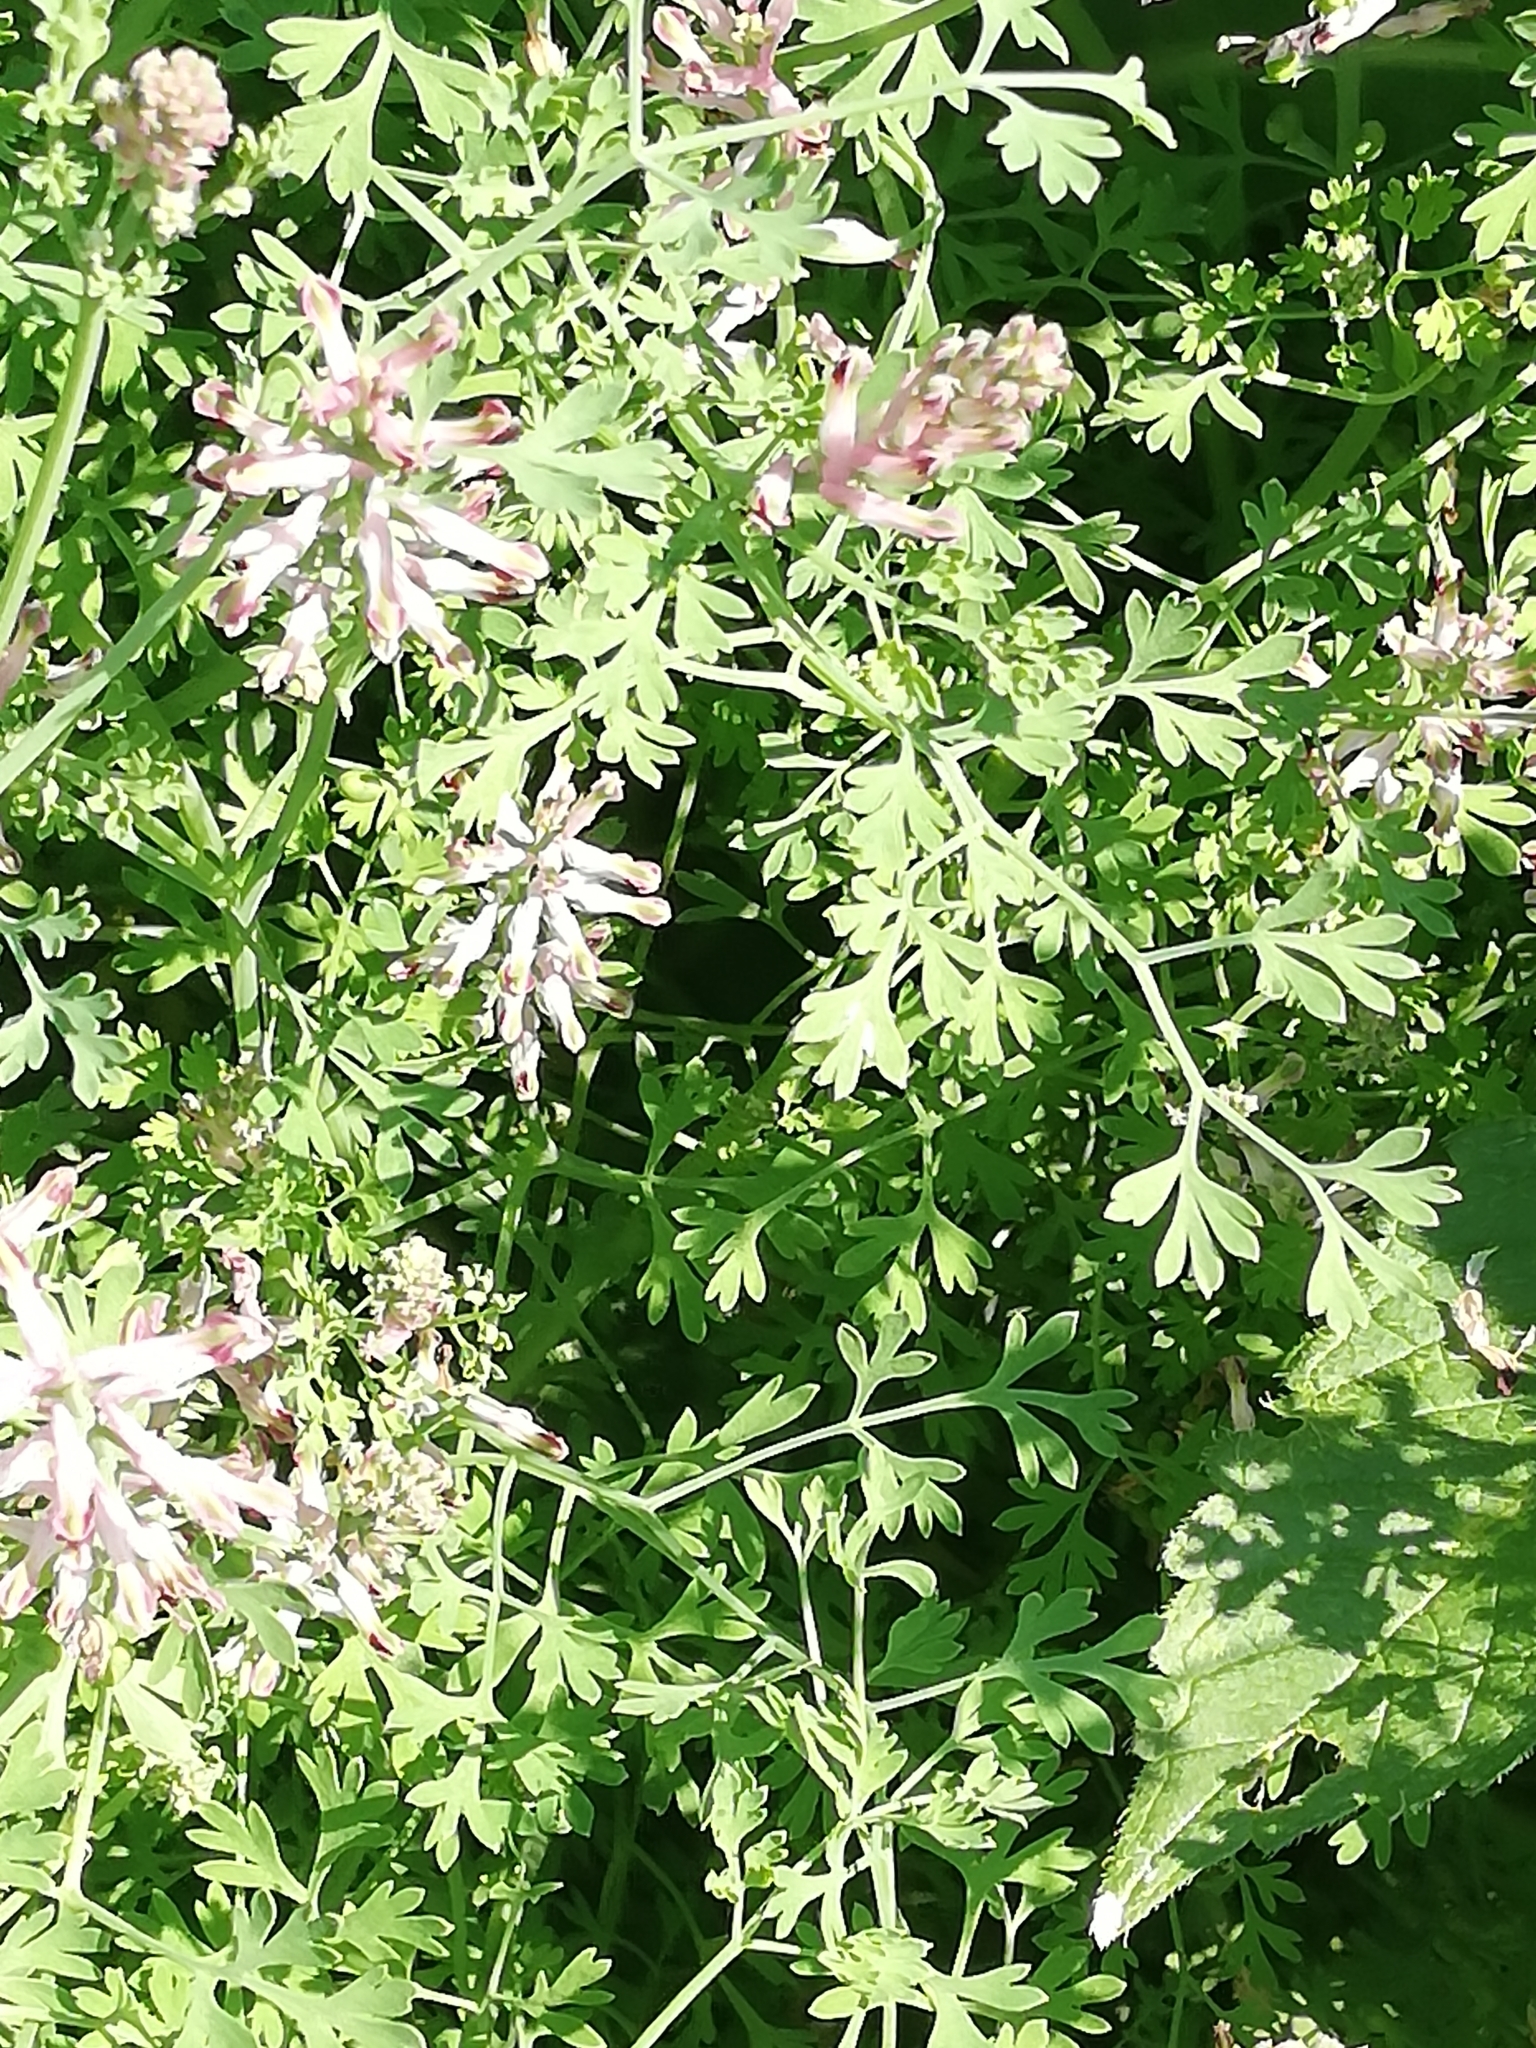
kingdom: Plantae
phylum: Tracheophyta
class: Magnoliopsida
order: Ranunculales
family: Papaveraceae
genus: Fumaria
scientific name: Fumaria officinalis
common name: Common fumitory
